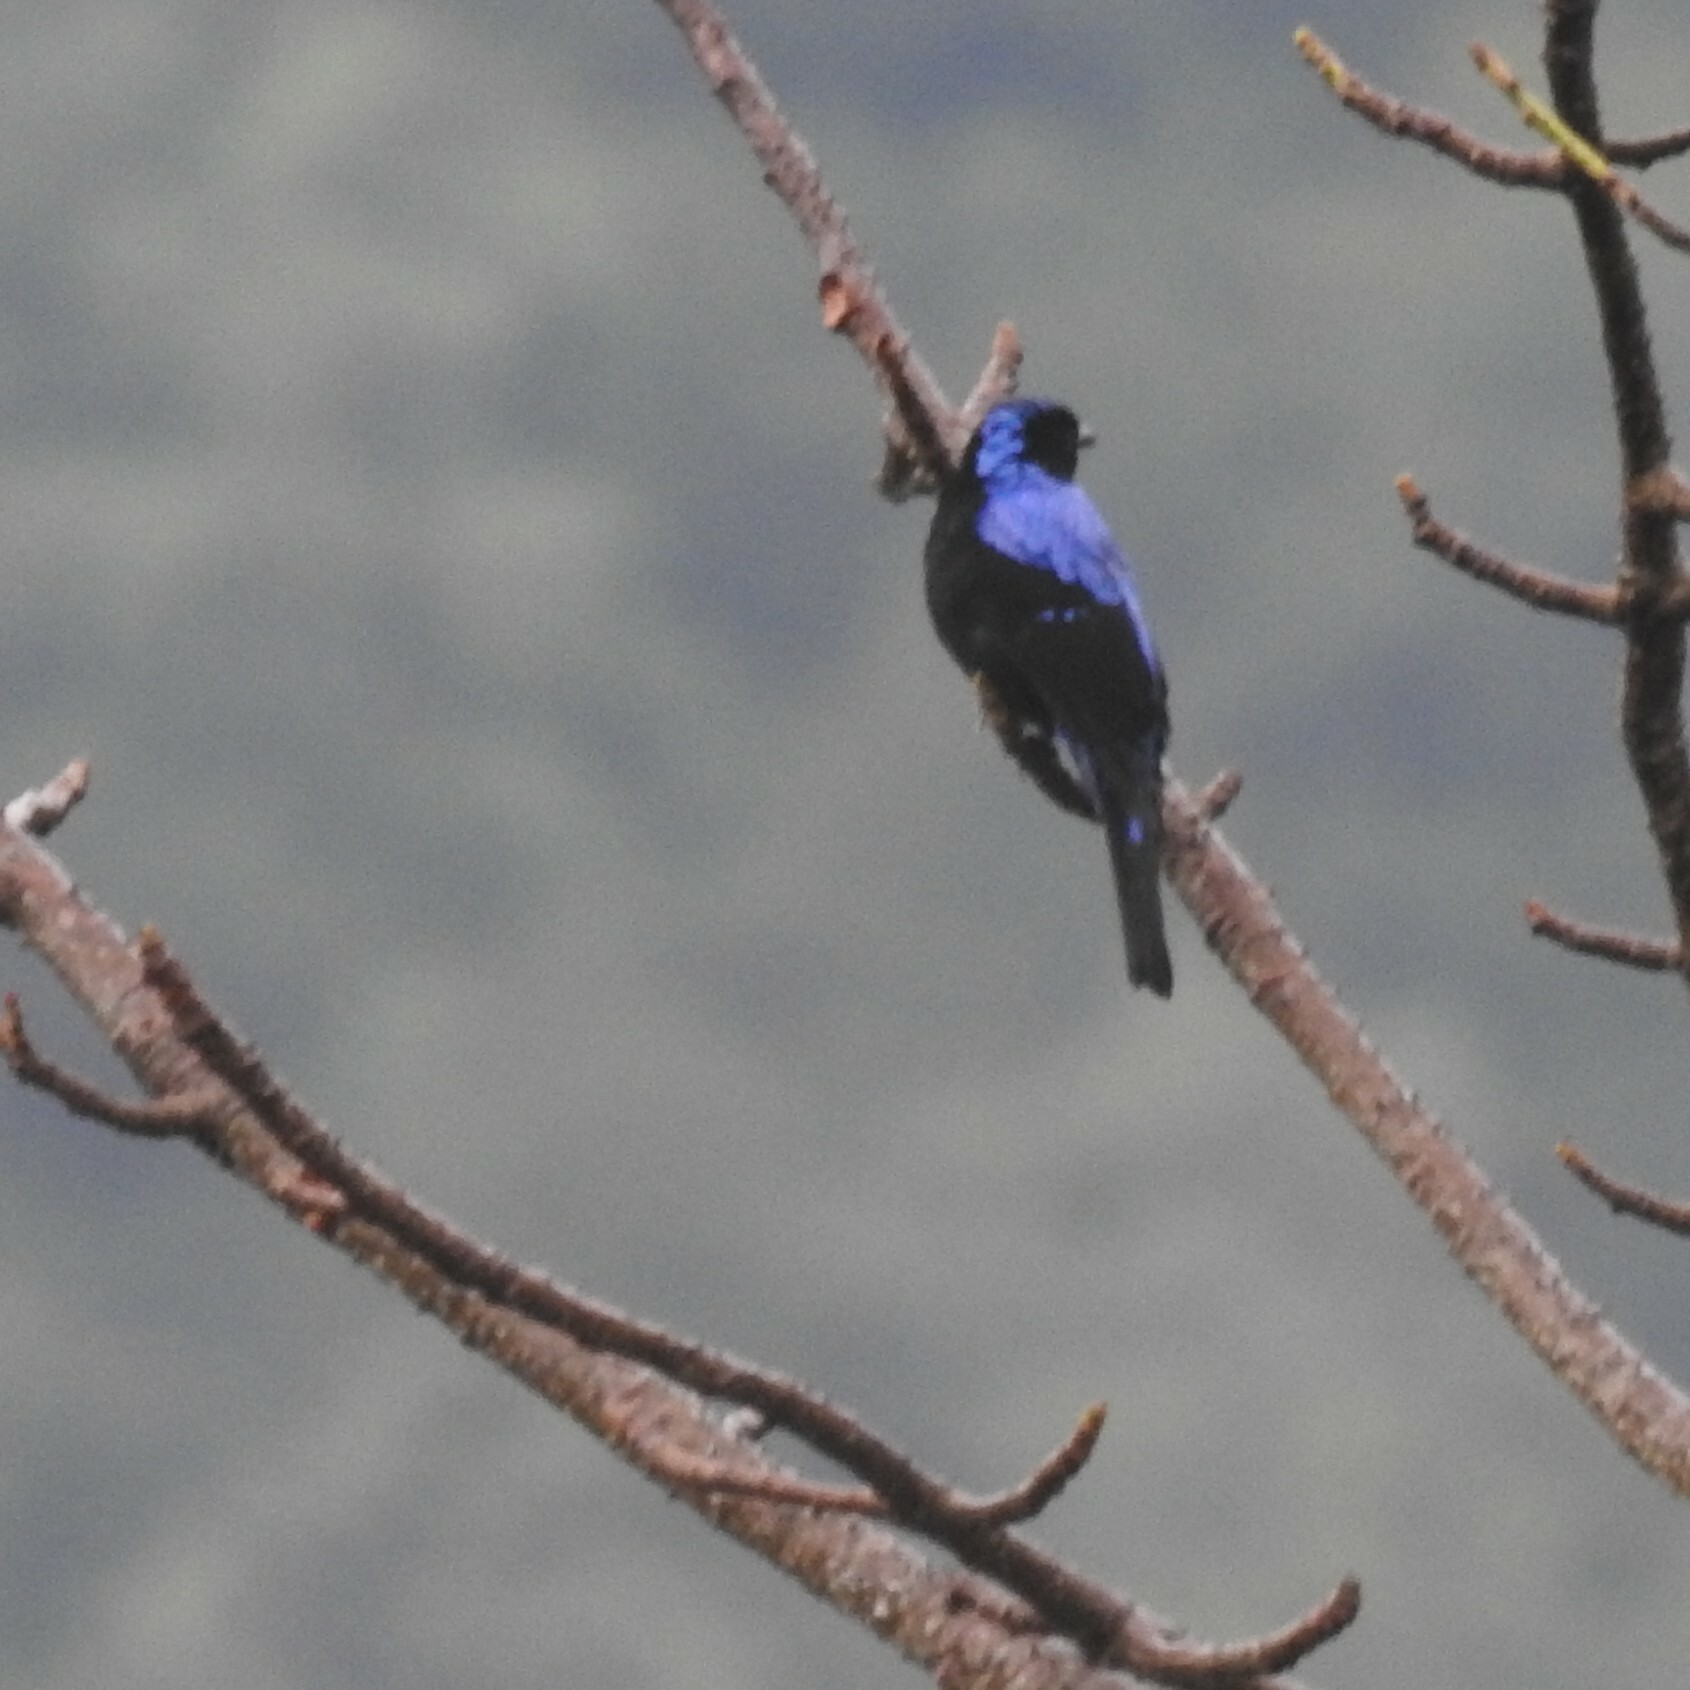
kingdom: Animalia
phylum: Chordata
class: Aves
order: Passeriformes
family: Irenidae
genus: Irena
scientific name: Irena puella
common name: Asian fairy-bluebird
